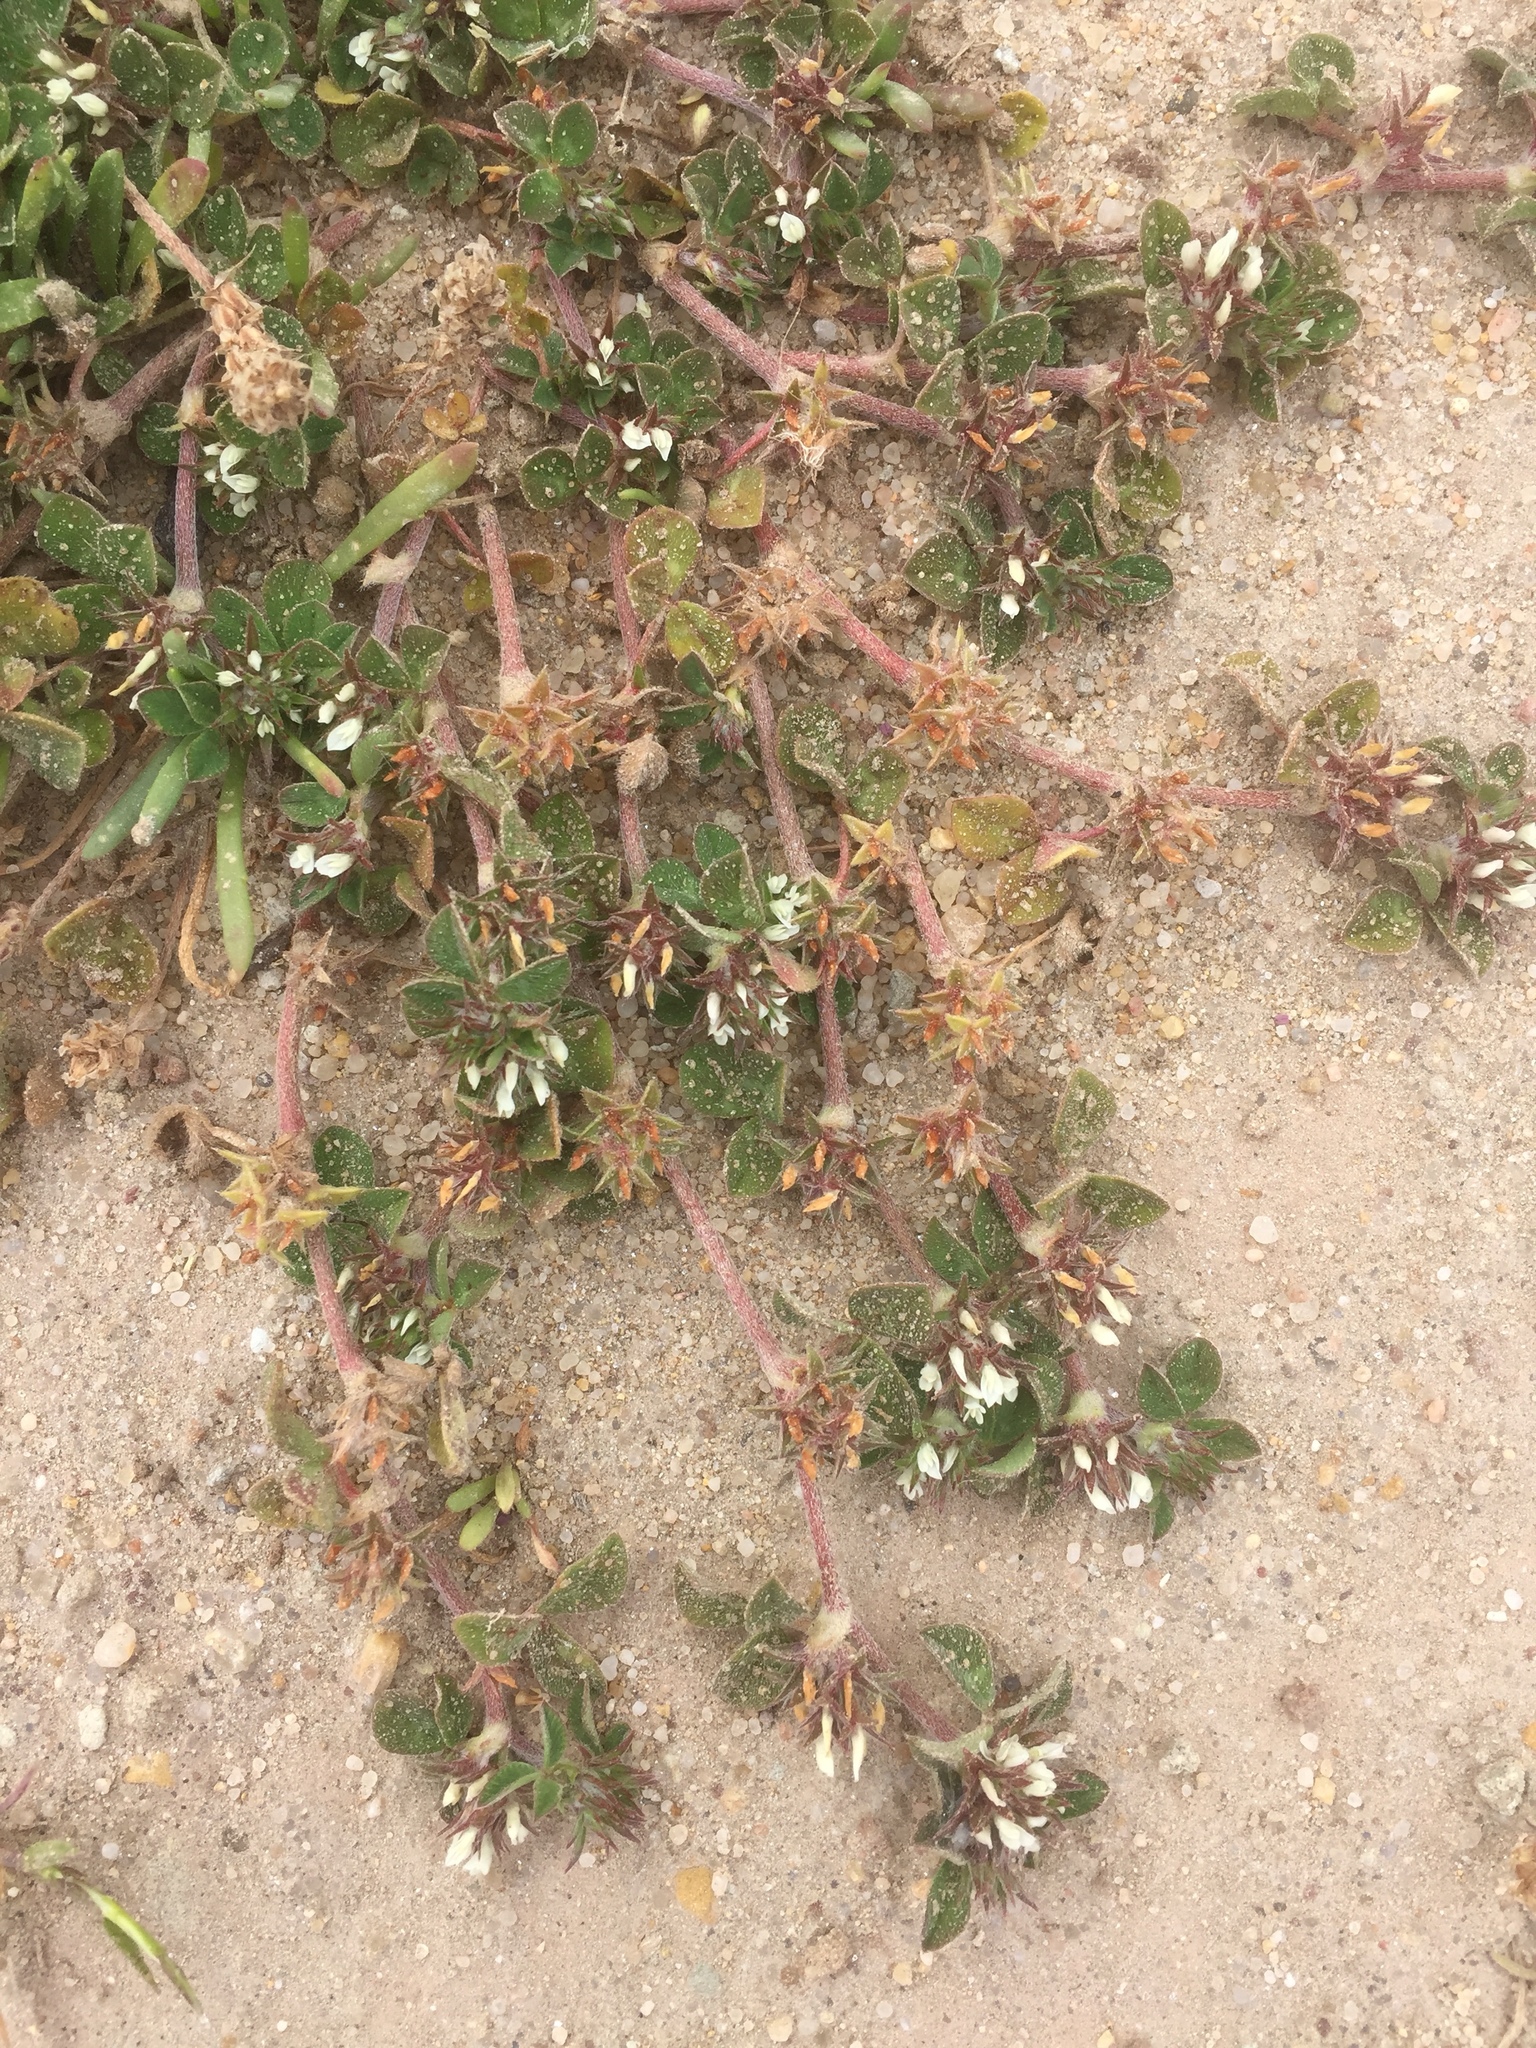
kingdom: Plantae
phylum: Tracheophyta
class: Magnoliopsida
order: Fabales
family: Fabaceae
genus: Trifolium
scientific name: Trifolium scabrum
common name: Rough clover
